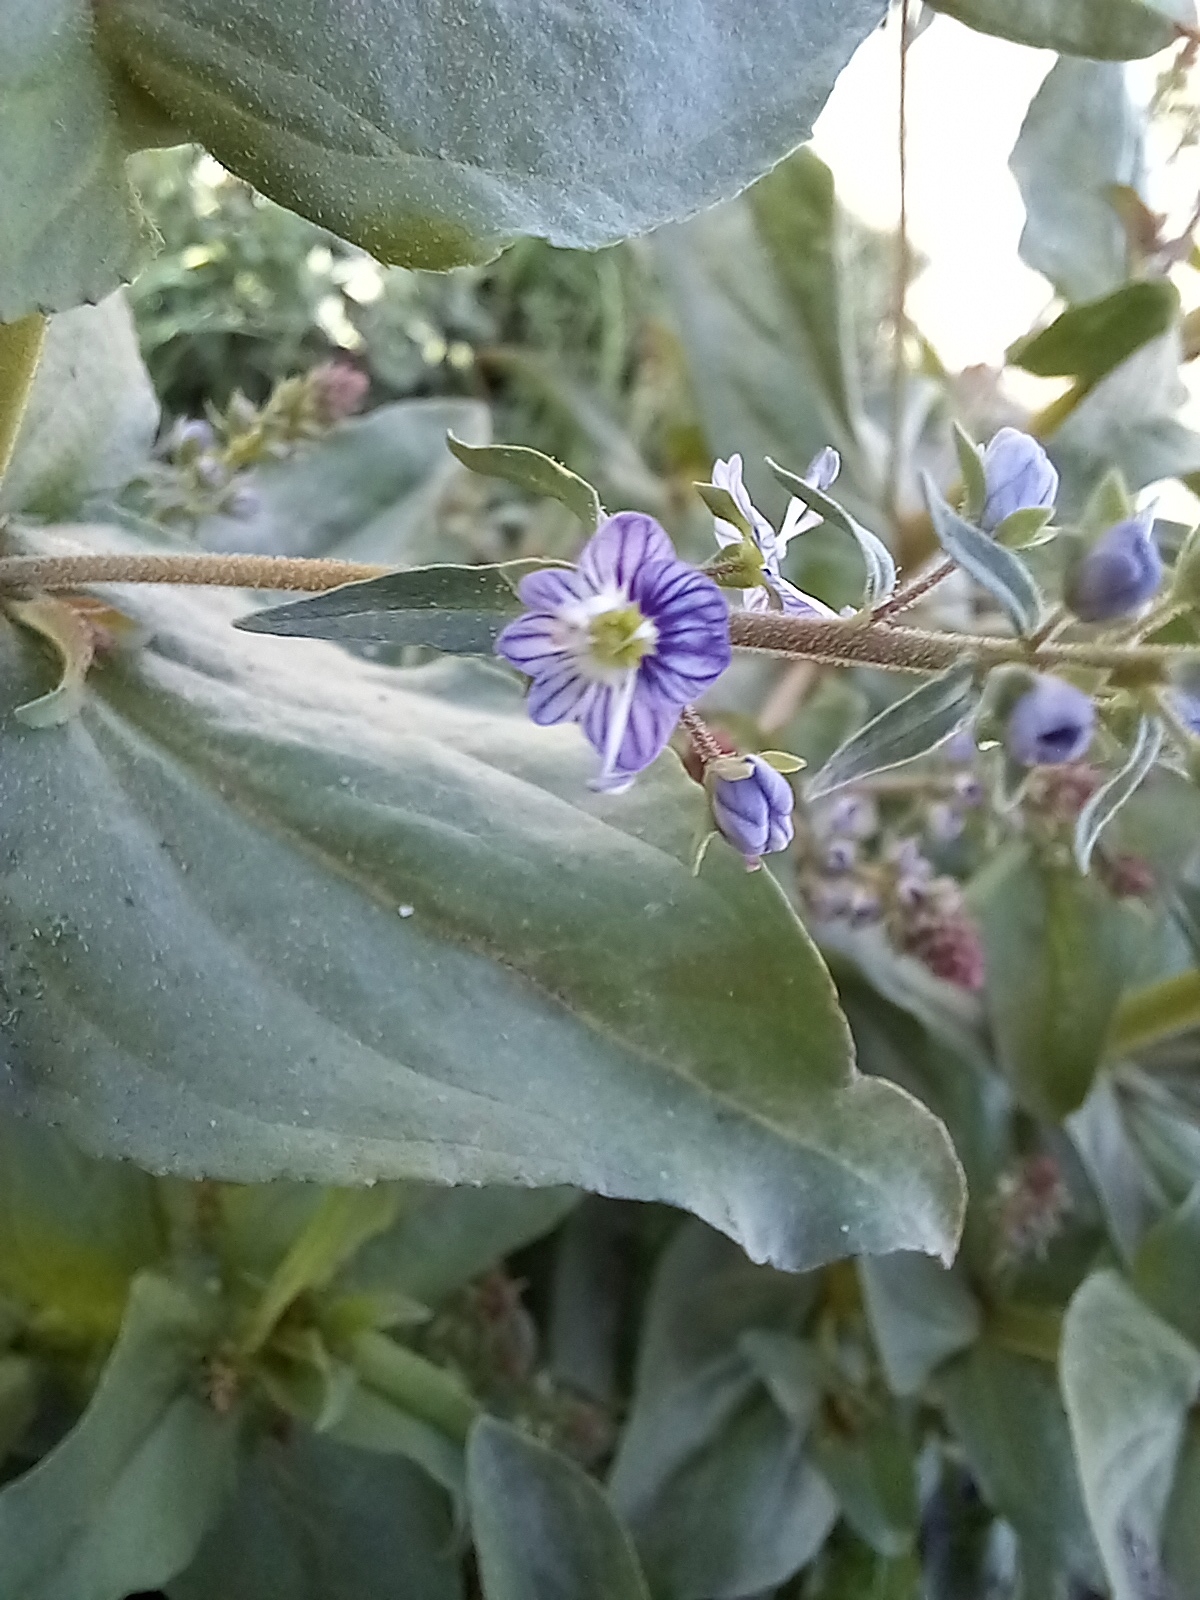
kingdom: Plantae
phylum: Tracheophyta
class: Magnoliopsida
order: Lamiales
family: Plantaginaceae
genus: Veronica
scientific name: Veronica anagallis-aquatica
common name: Water speedwell
